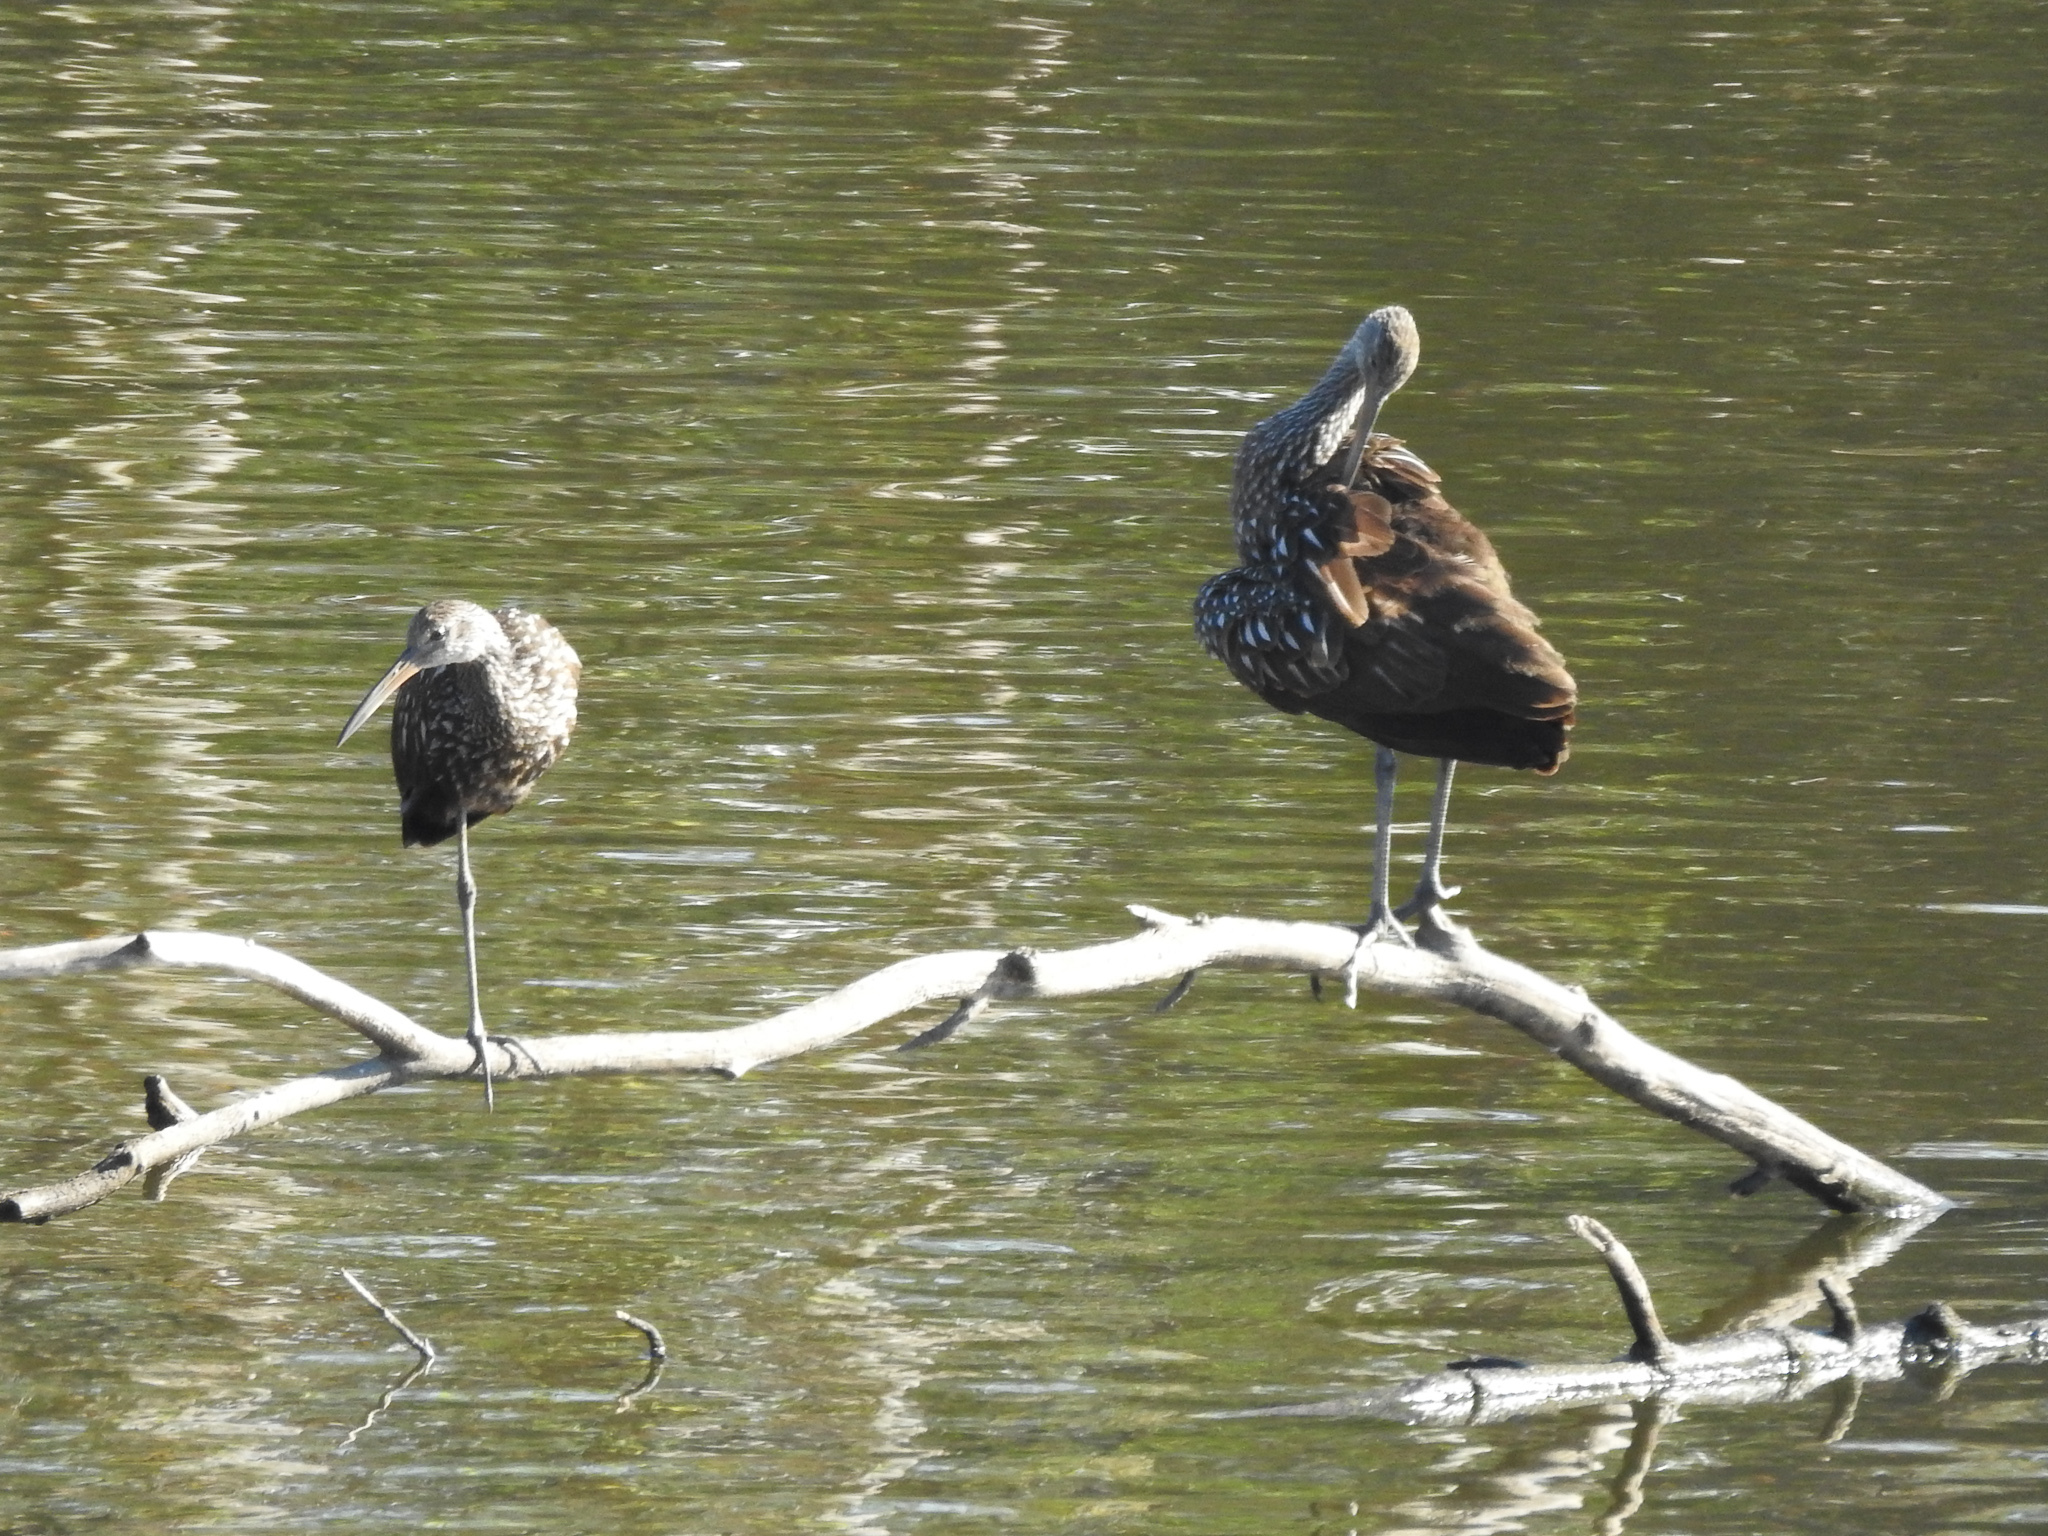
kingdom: Animalia
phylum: Chordata
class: Aves
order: Gruiformes
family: Aramidae
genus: Aramus
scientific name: Aramus guarauna
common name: Limpkin
